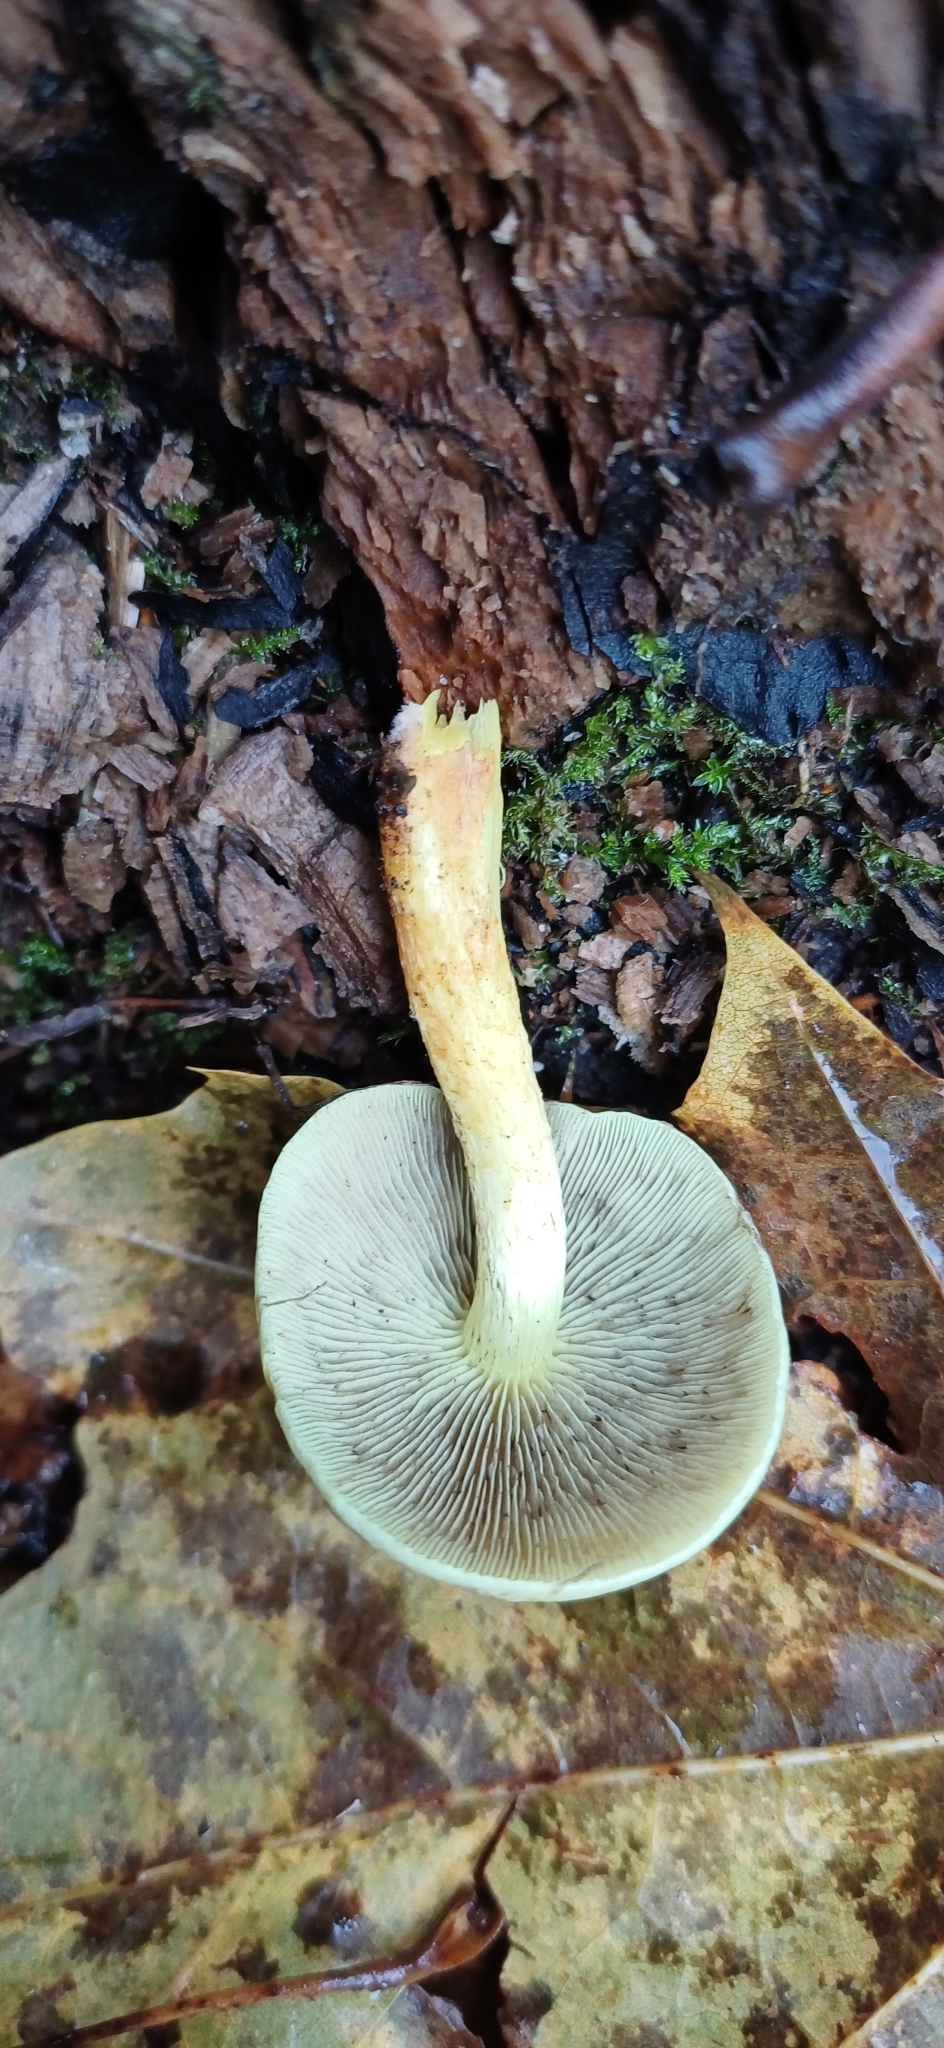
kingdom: Fungi
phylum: Basidiomycota
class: Agaricomycetes
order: Agaricales
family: Strophariaceae
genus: Hypholoma
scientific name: Hypholoma fasciculare
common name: Sulphur tuft
